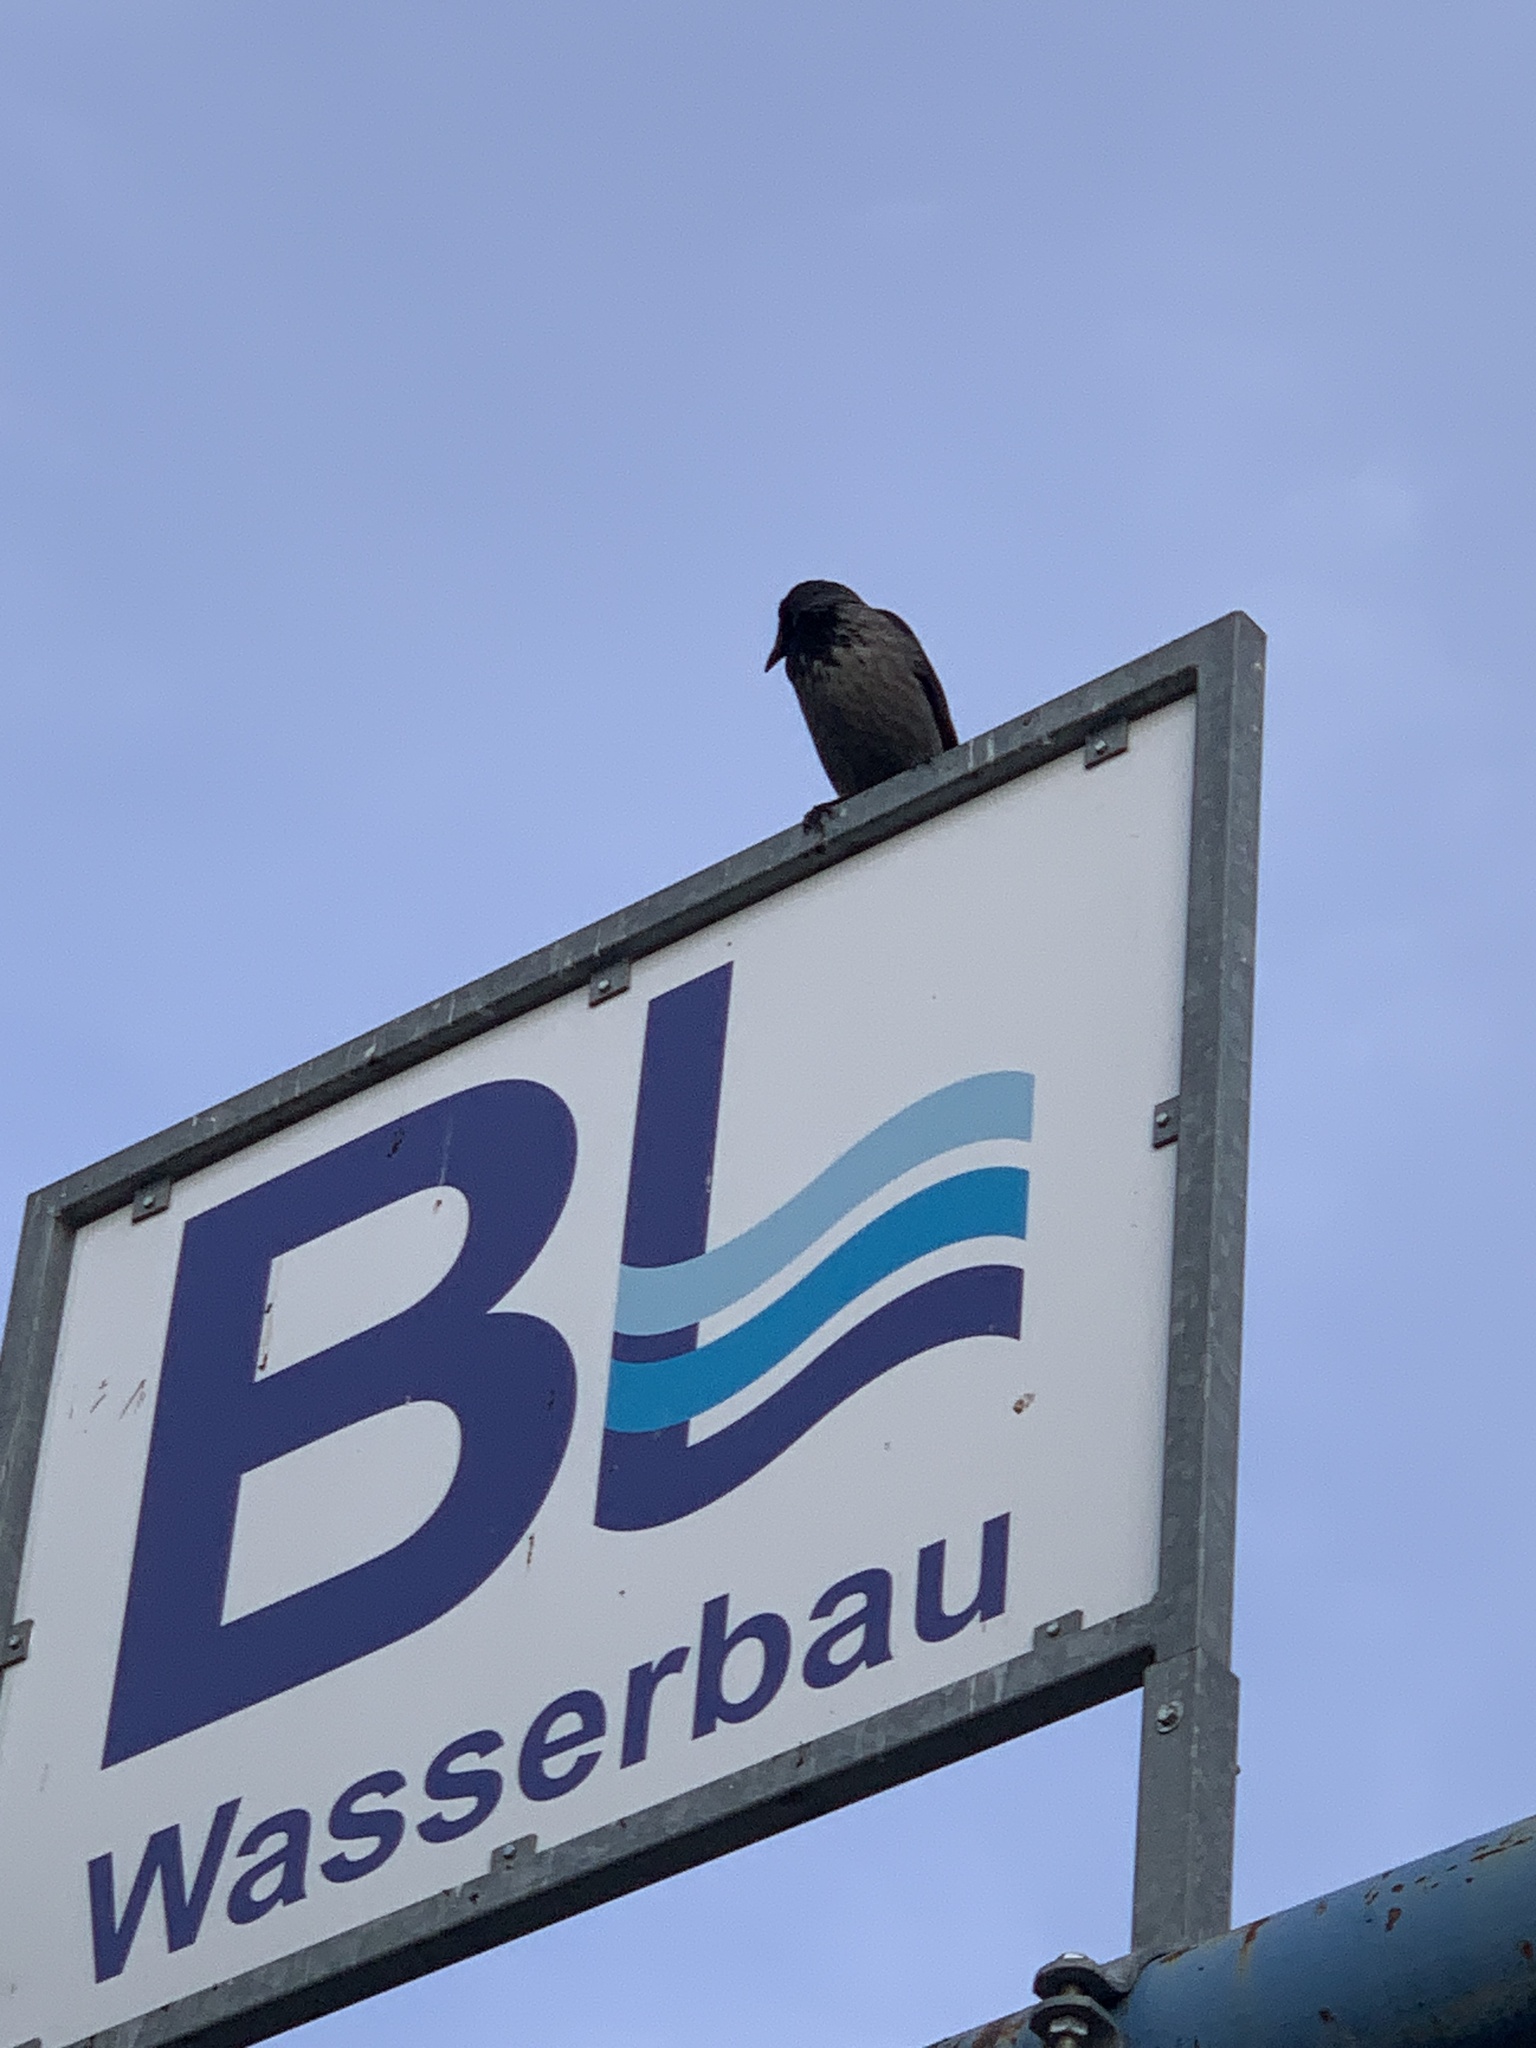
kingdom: Animalia
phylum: Chordata
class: Aves
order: Passeriformes
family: Corvidae
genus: Corvus
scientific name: Corvus cornix
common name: Hooded crow
